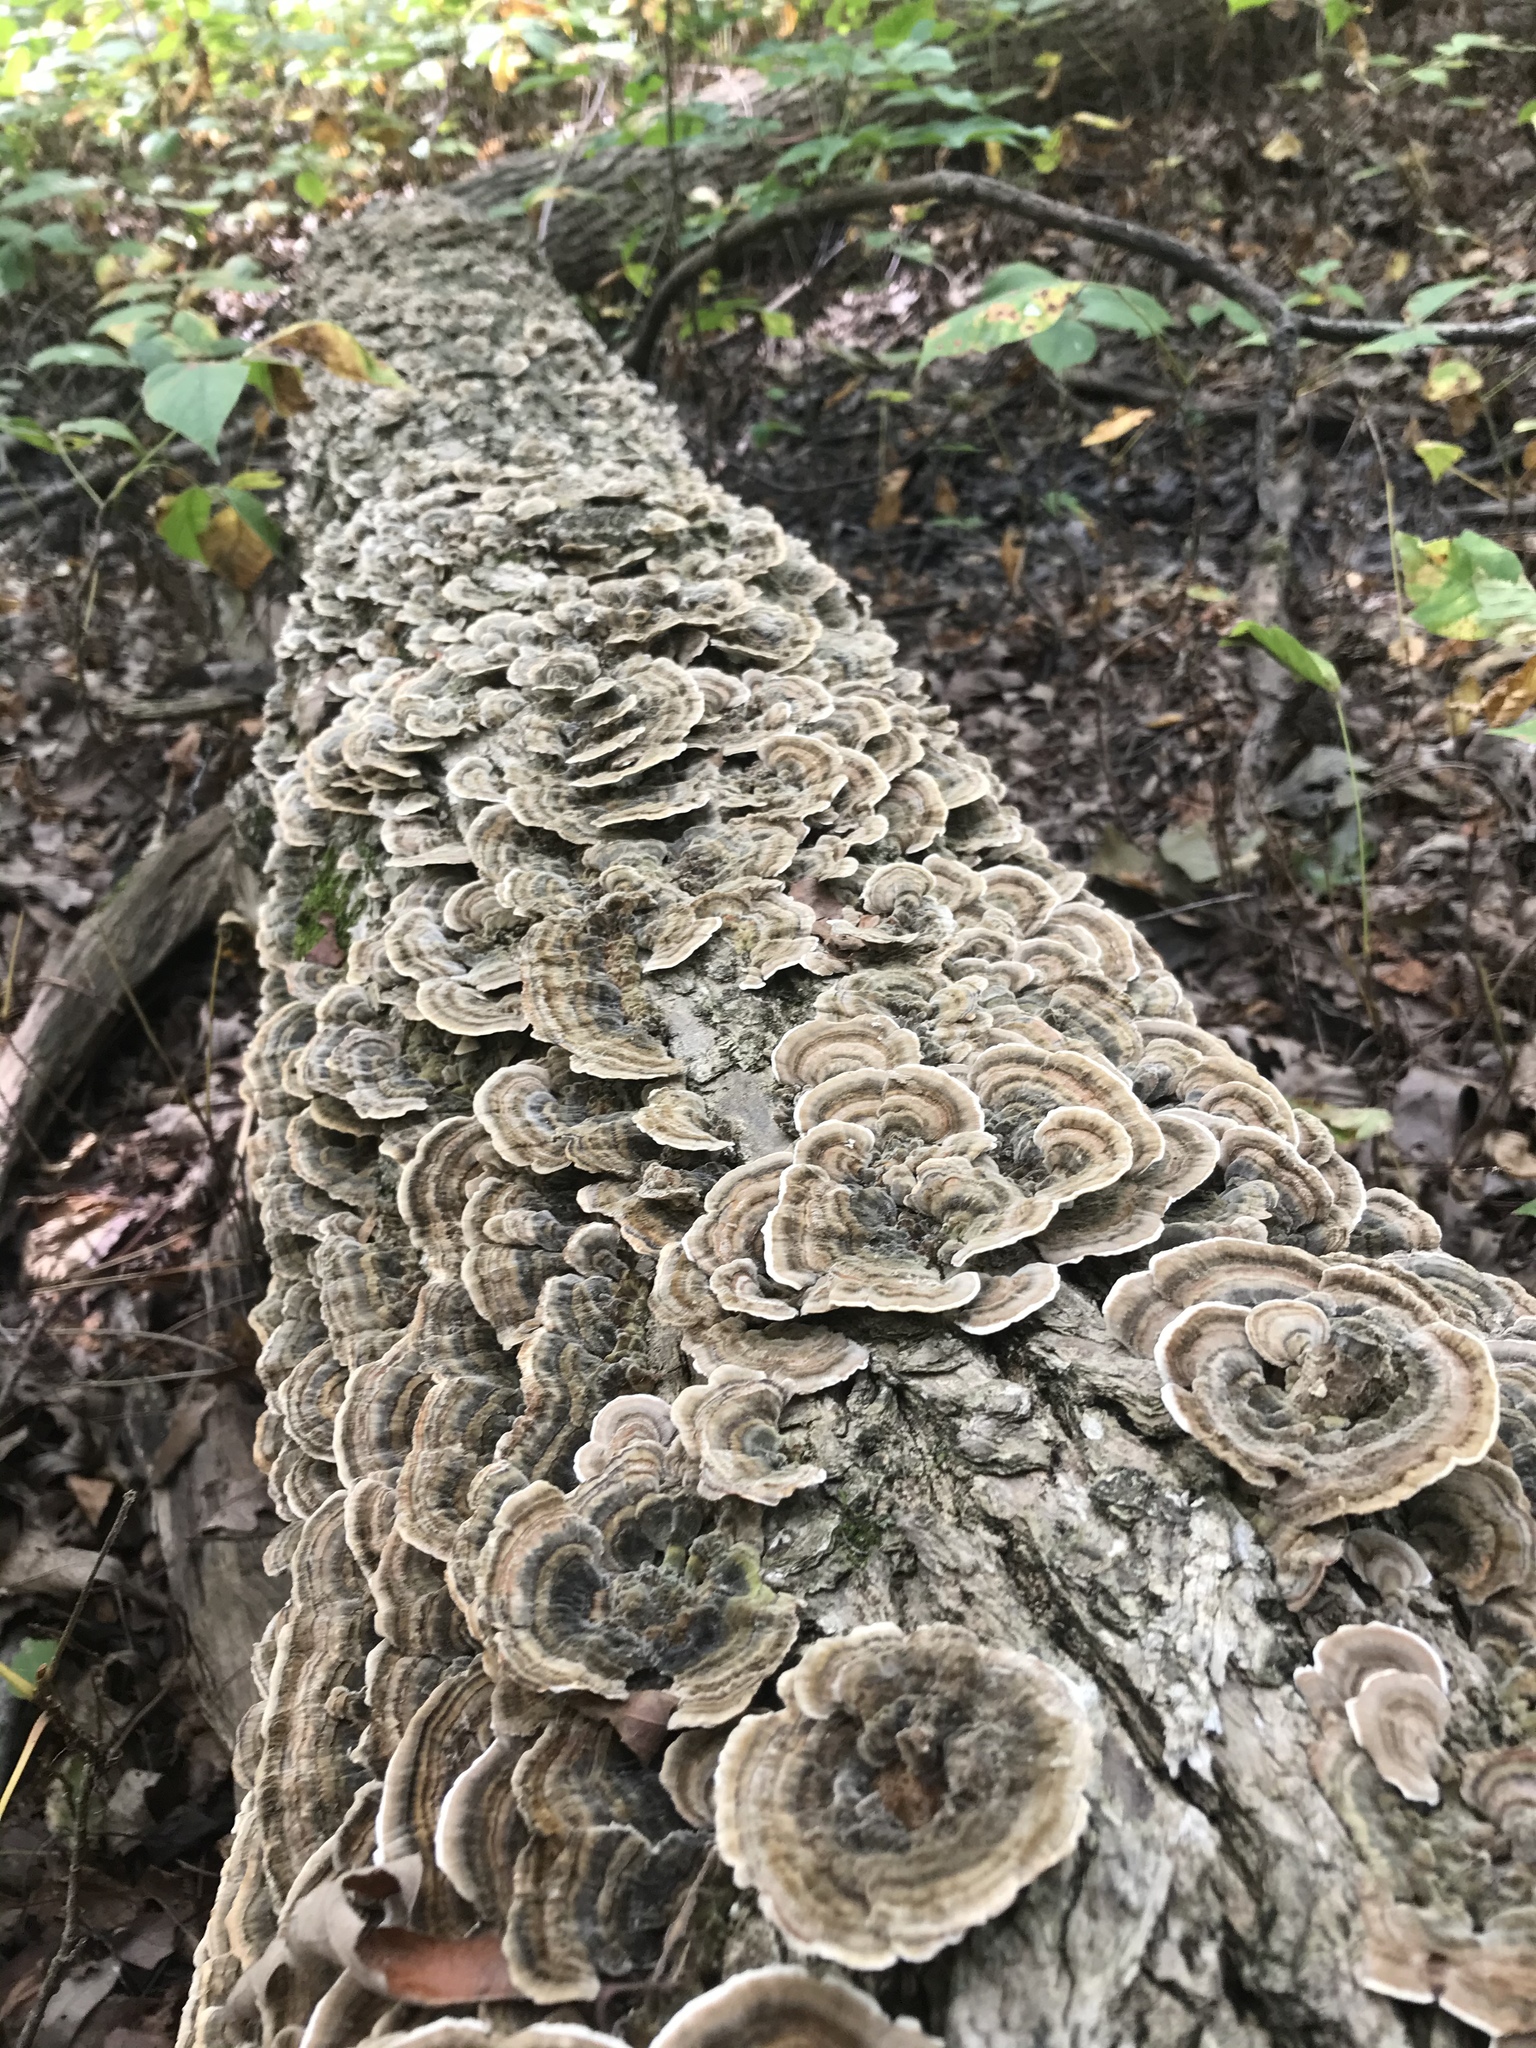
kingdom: Fungi
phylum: Basidiomycota
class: Agaricomycetes
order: Polyporales
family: Polyporaceae
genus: Trametes
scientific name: Trametes versicolor
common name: Turkeytail
